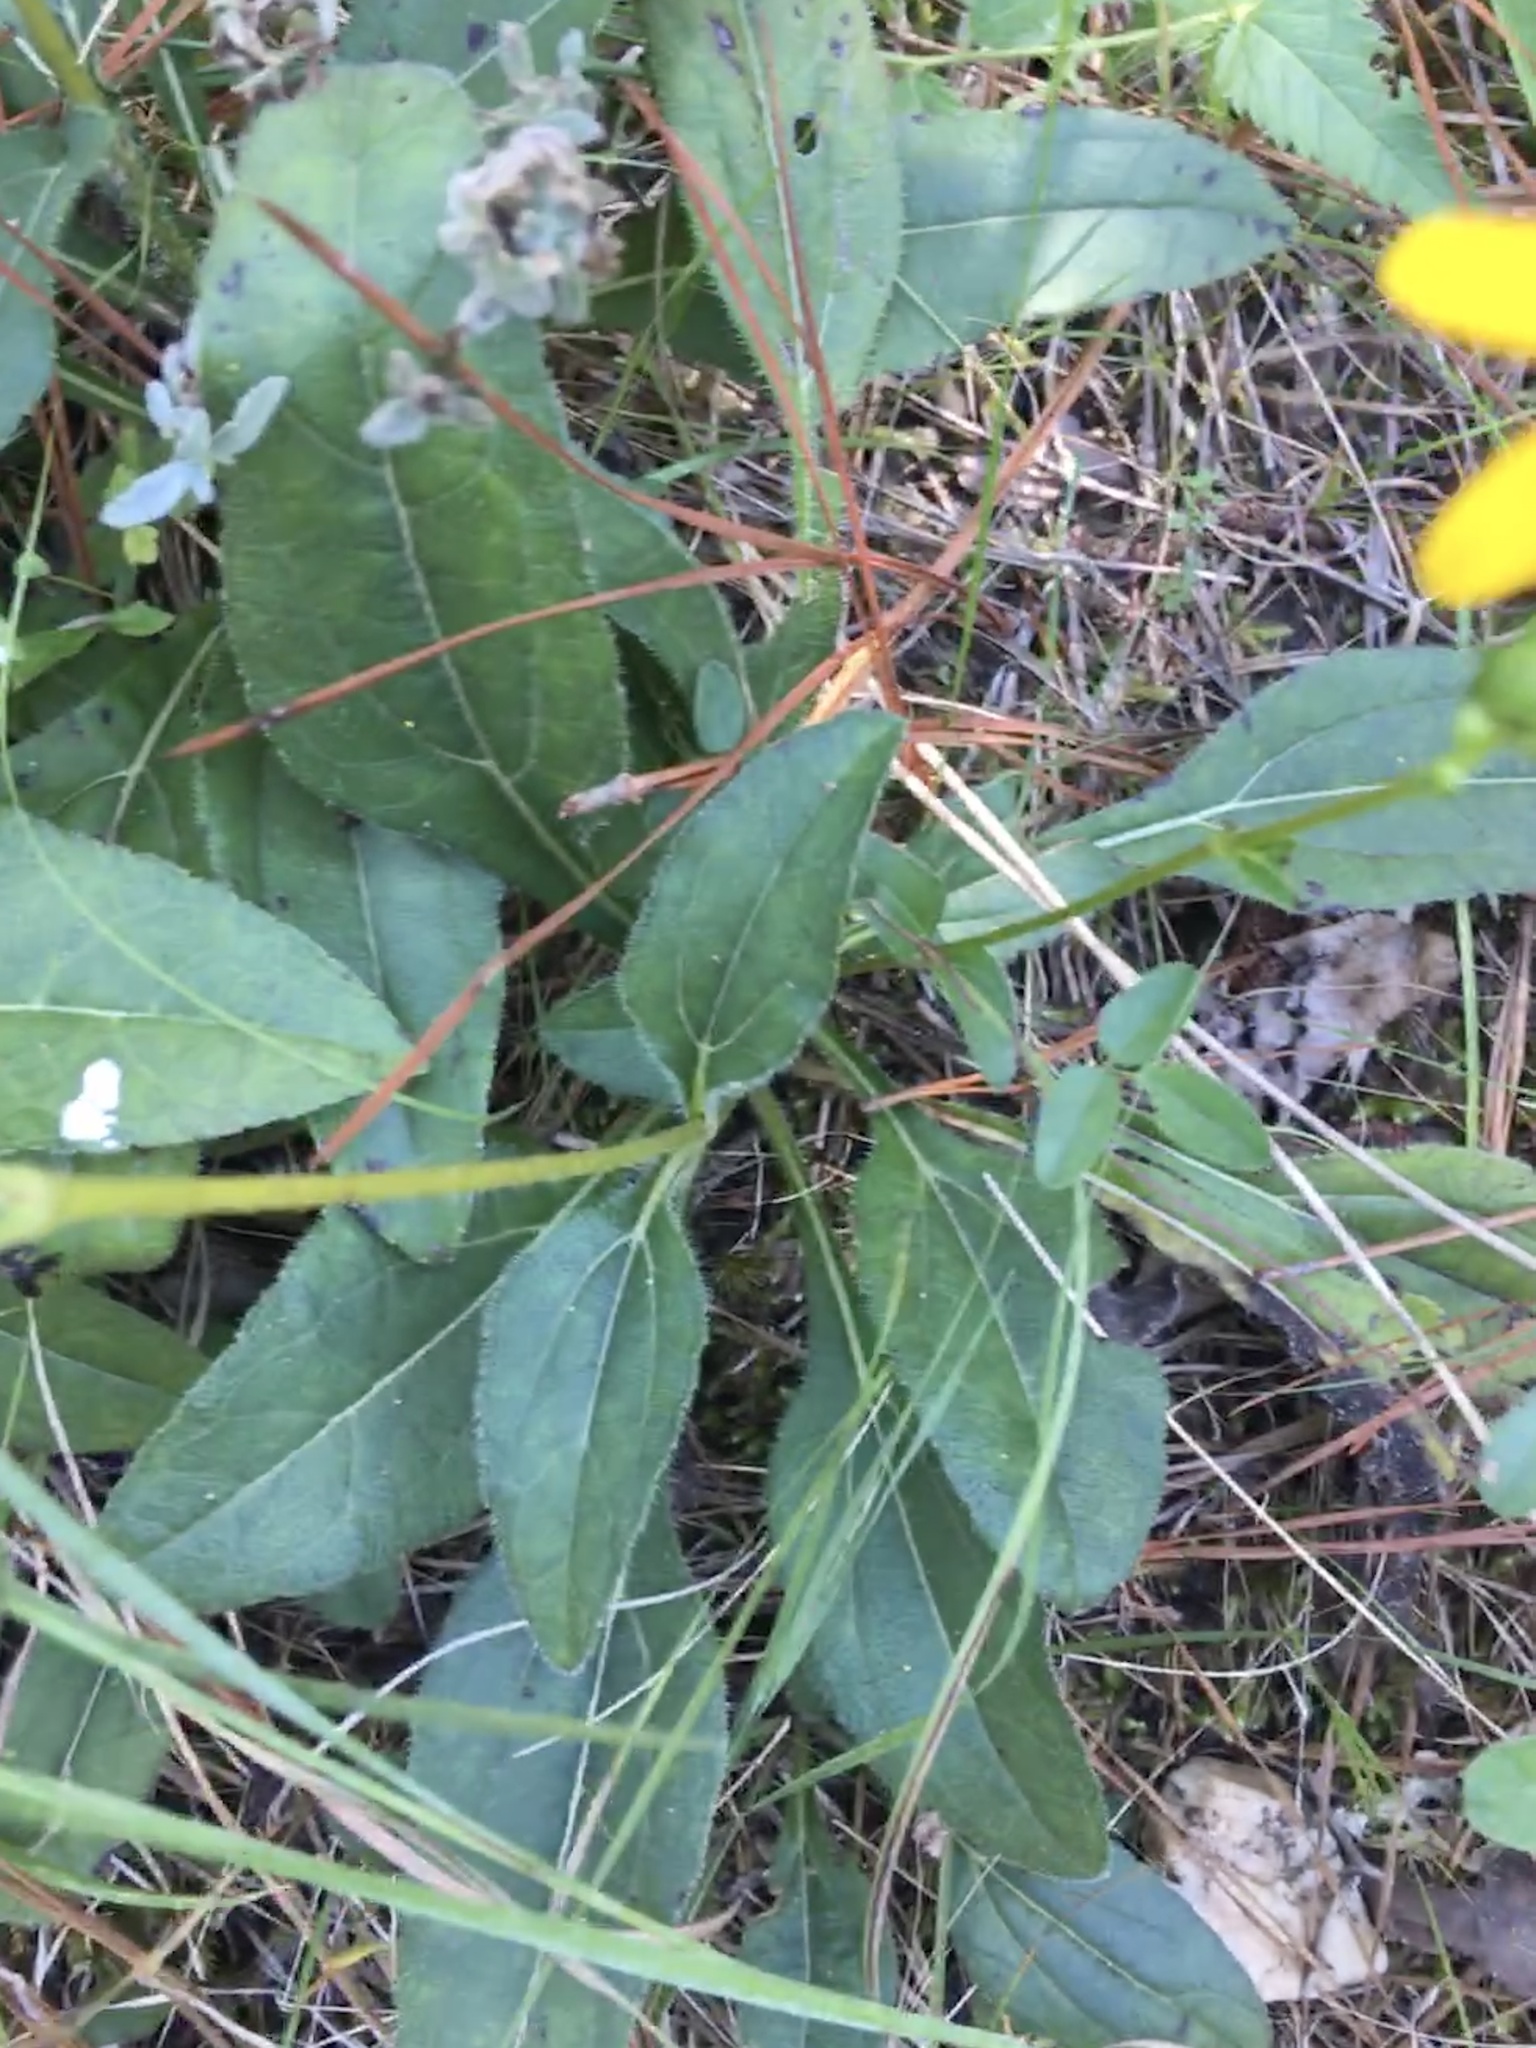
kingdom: Plantae
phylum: Tracheophyta
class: Magnoliopsida
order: Asterales
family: Asteraceae
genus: Helianthus
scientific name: Helianthus atrorubens
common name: Dark-eyed sunflower
